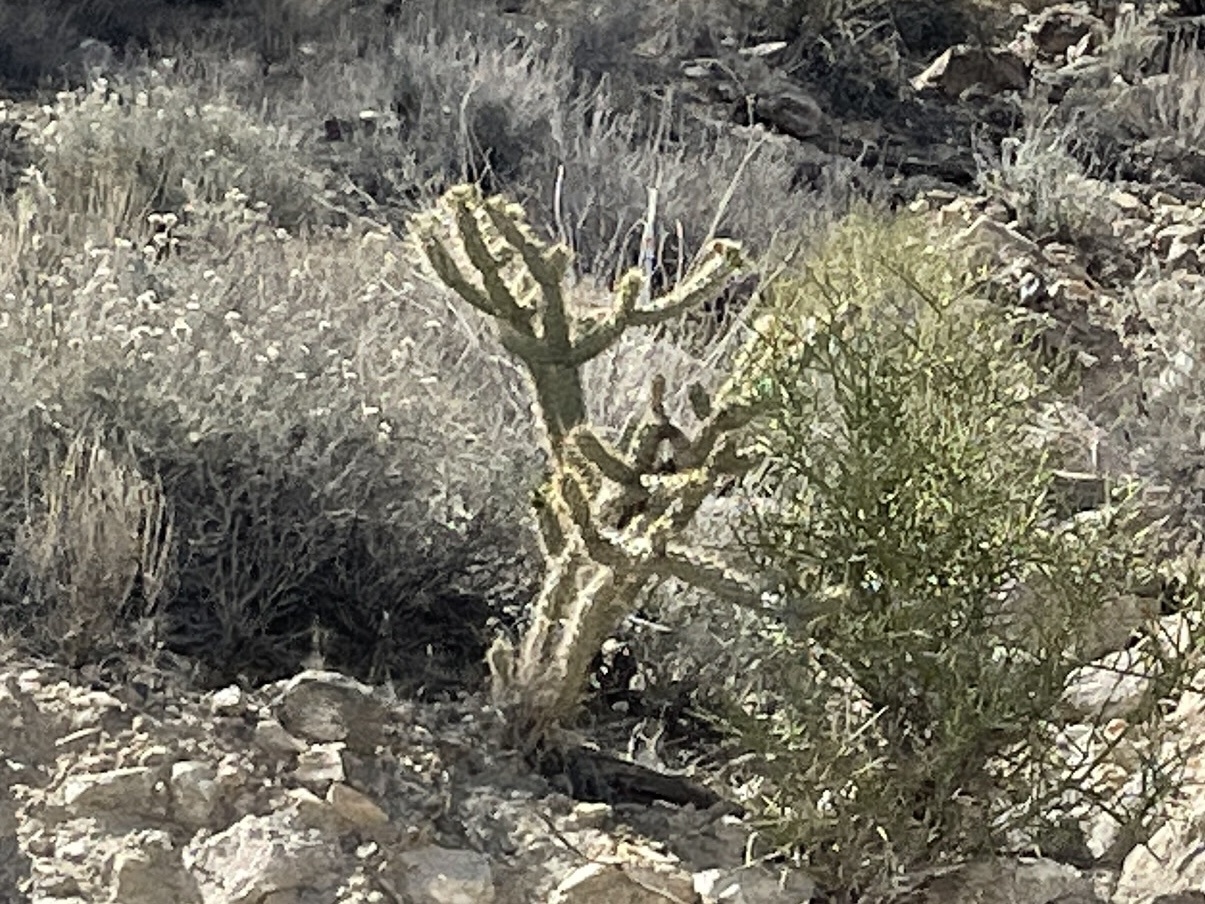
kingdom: Plantae
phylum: Tracheophyta
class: Magnoliopsida
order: Caryophyllales
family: Cactaceae
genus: Cylindropuntia
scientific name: Cylindropuntia acanthocarpa
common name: Buckhorn cholla
